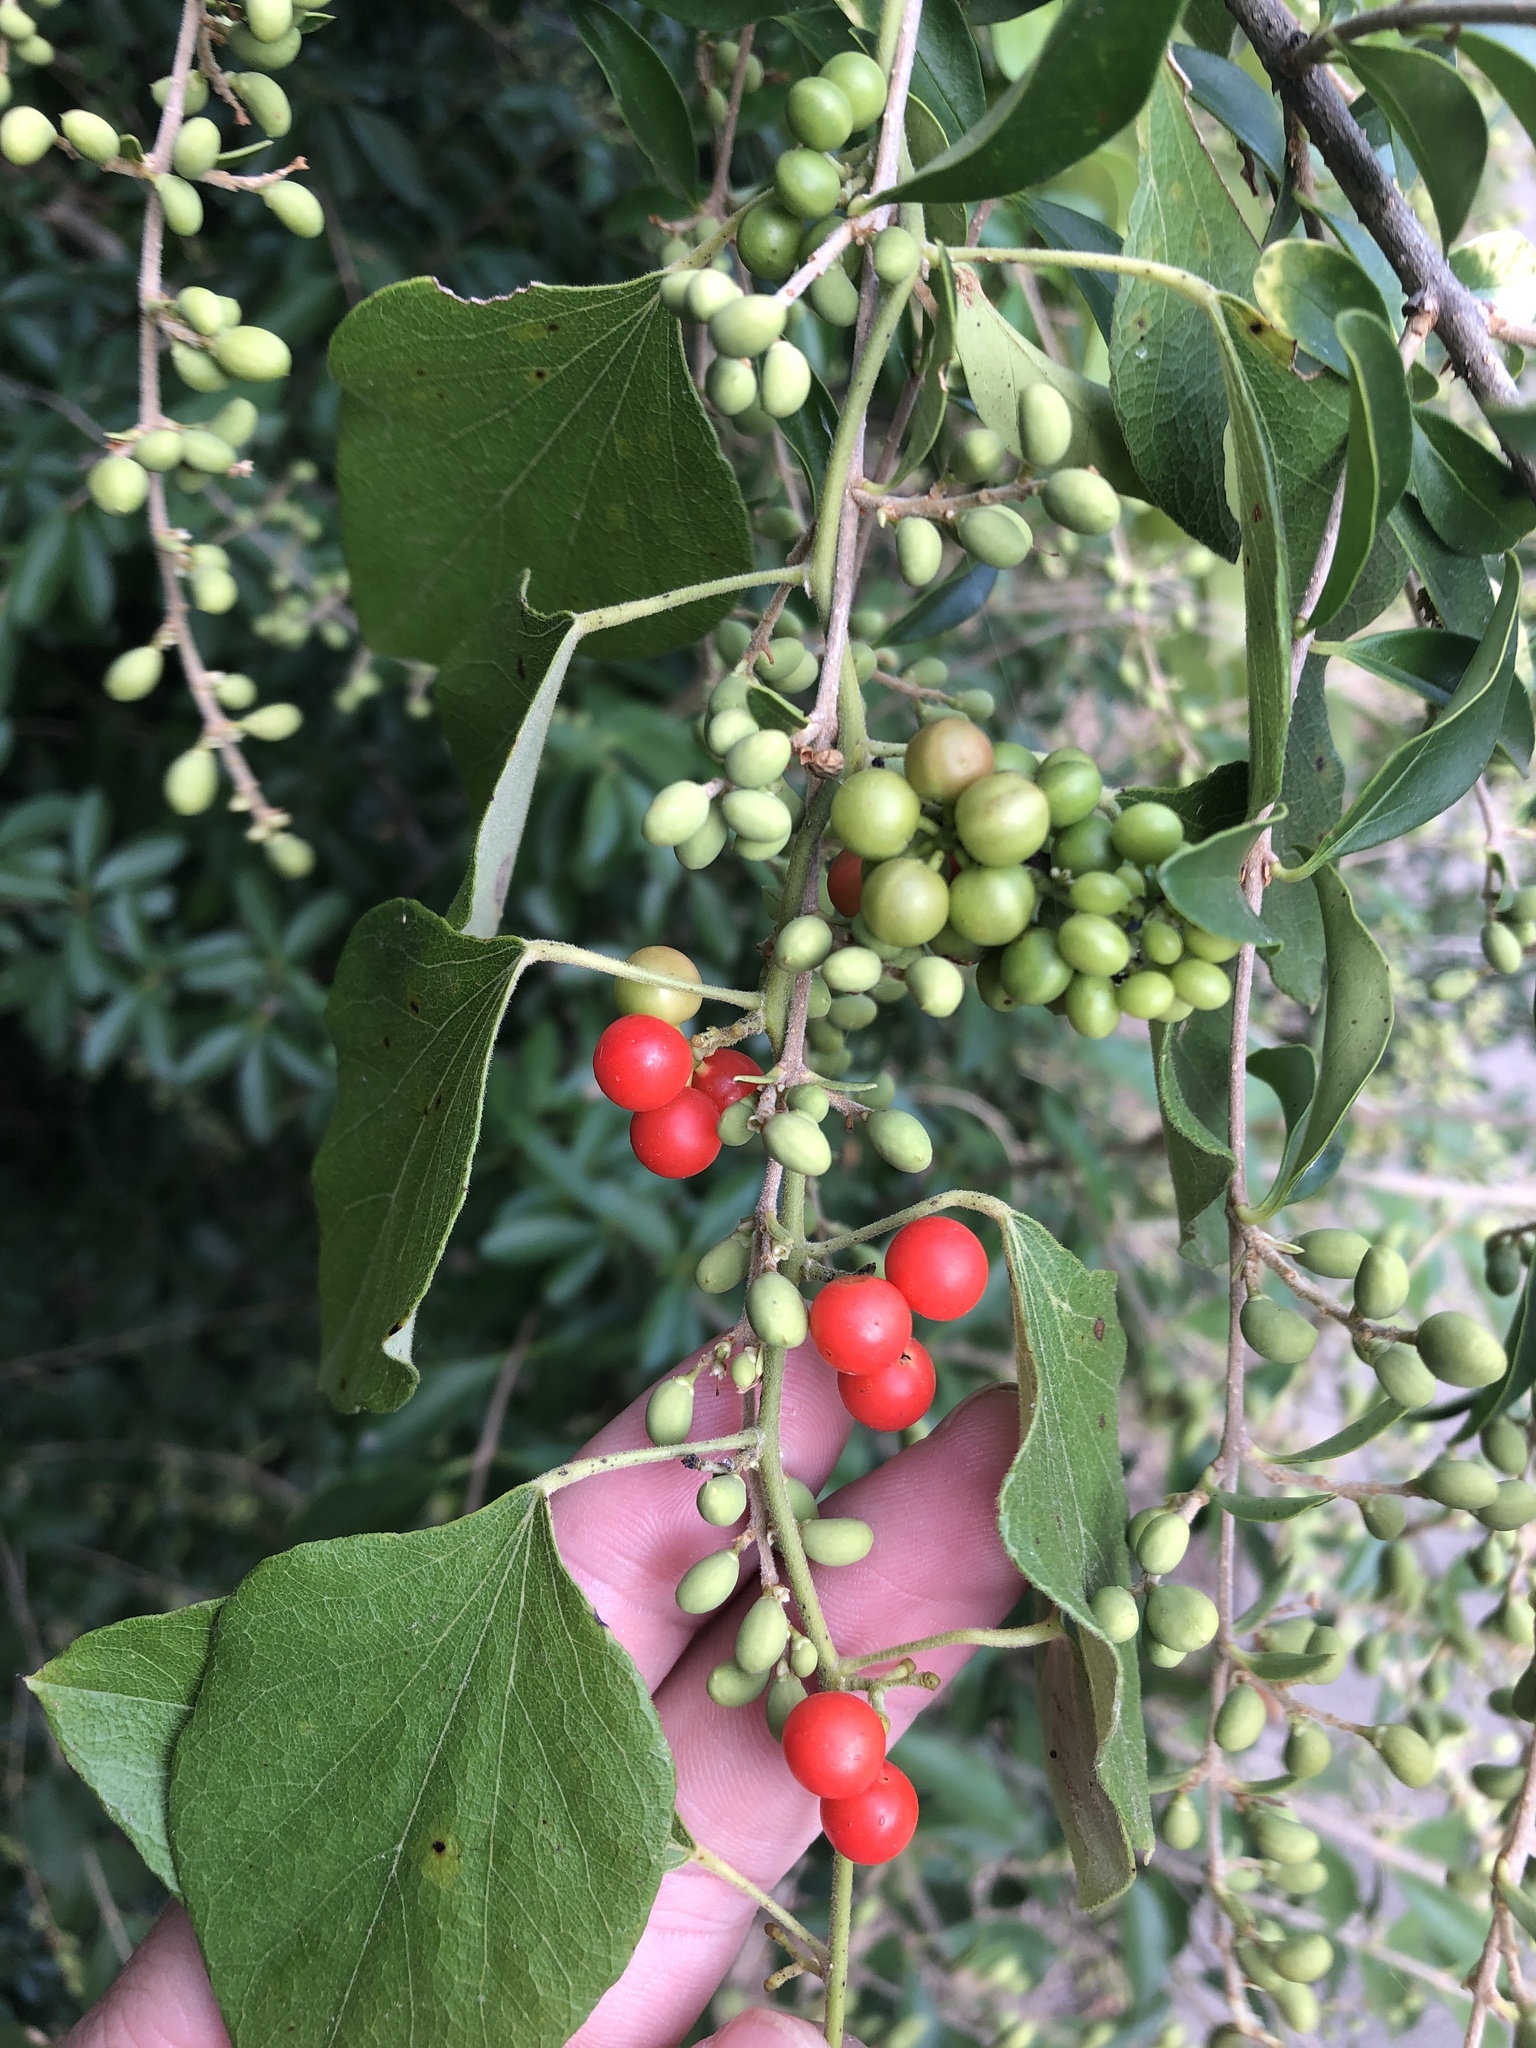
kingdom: Plantae
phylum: Tracheophyta
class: Magnoliopsida
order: Ranunculales
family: Menispermaceae
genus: Cocculus
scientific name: Cocculus carolinus
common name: Carolina moonseed
